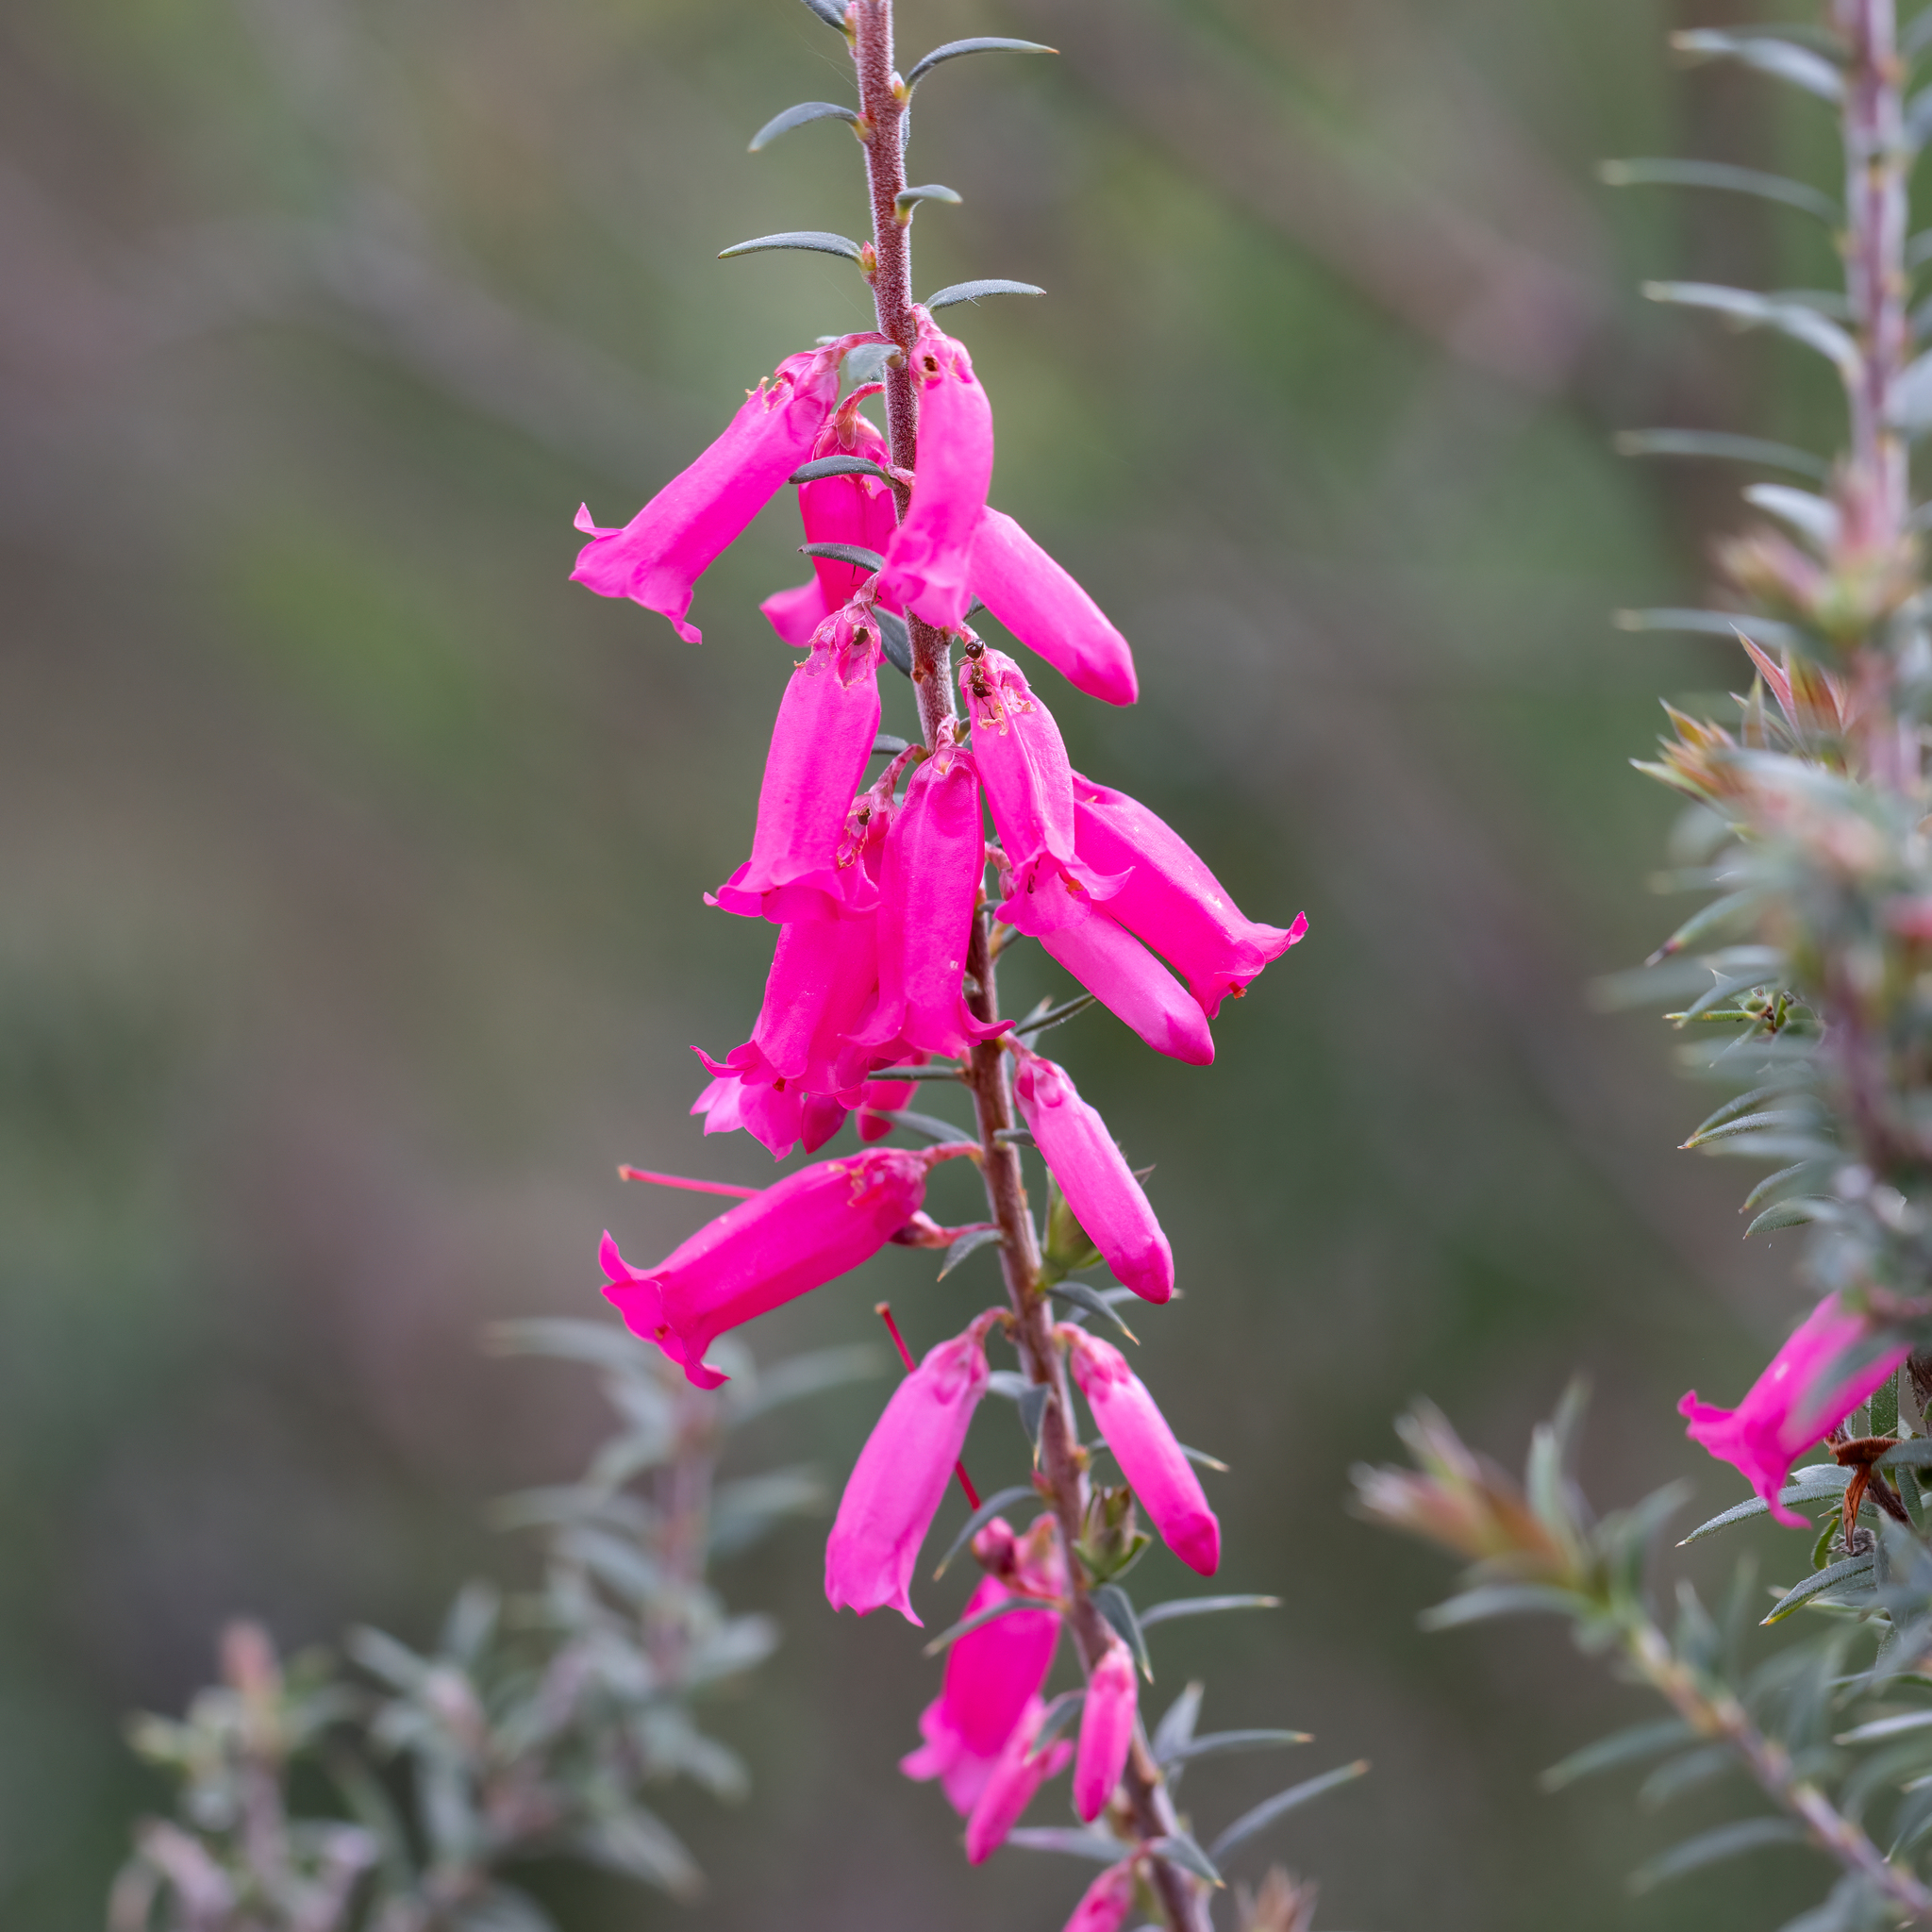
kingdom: Plantae
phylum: Tracheophyta
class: Magnoliopsida
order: Ericales
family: Ericaceae
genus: Epacris
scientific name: Epacris impressa
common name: Common-heath
